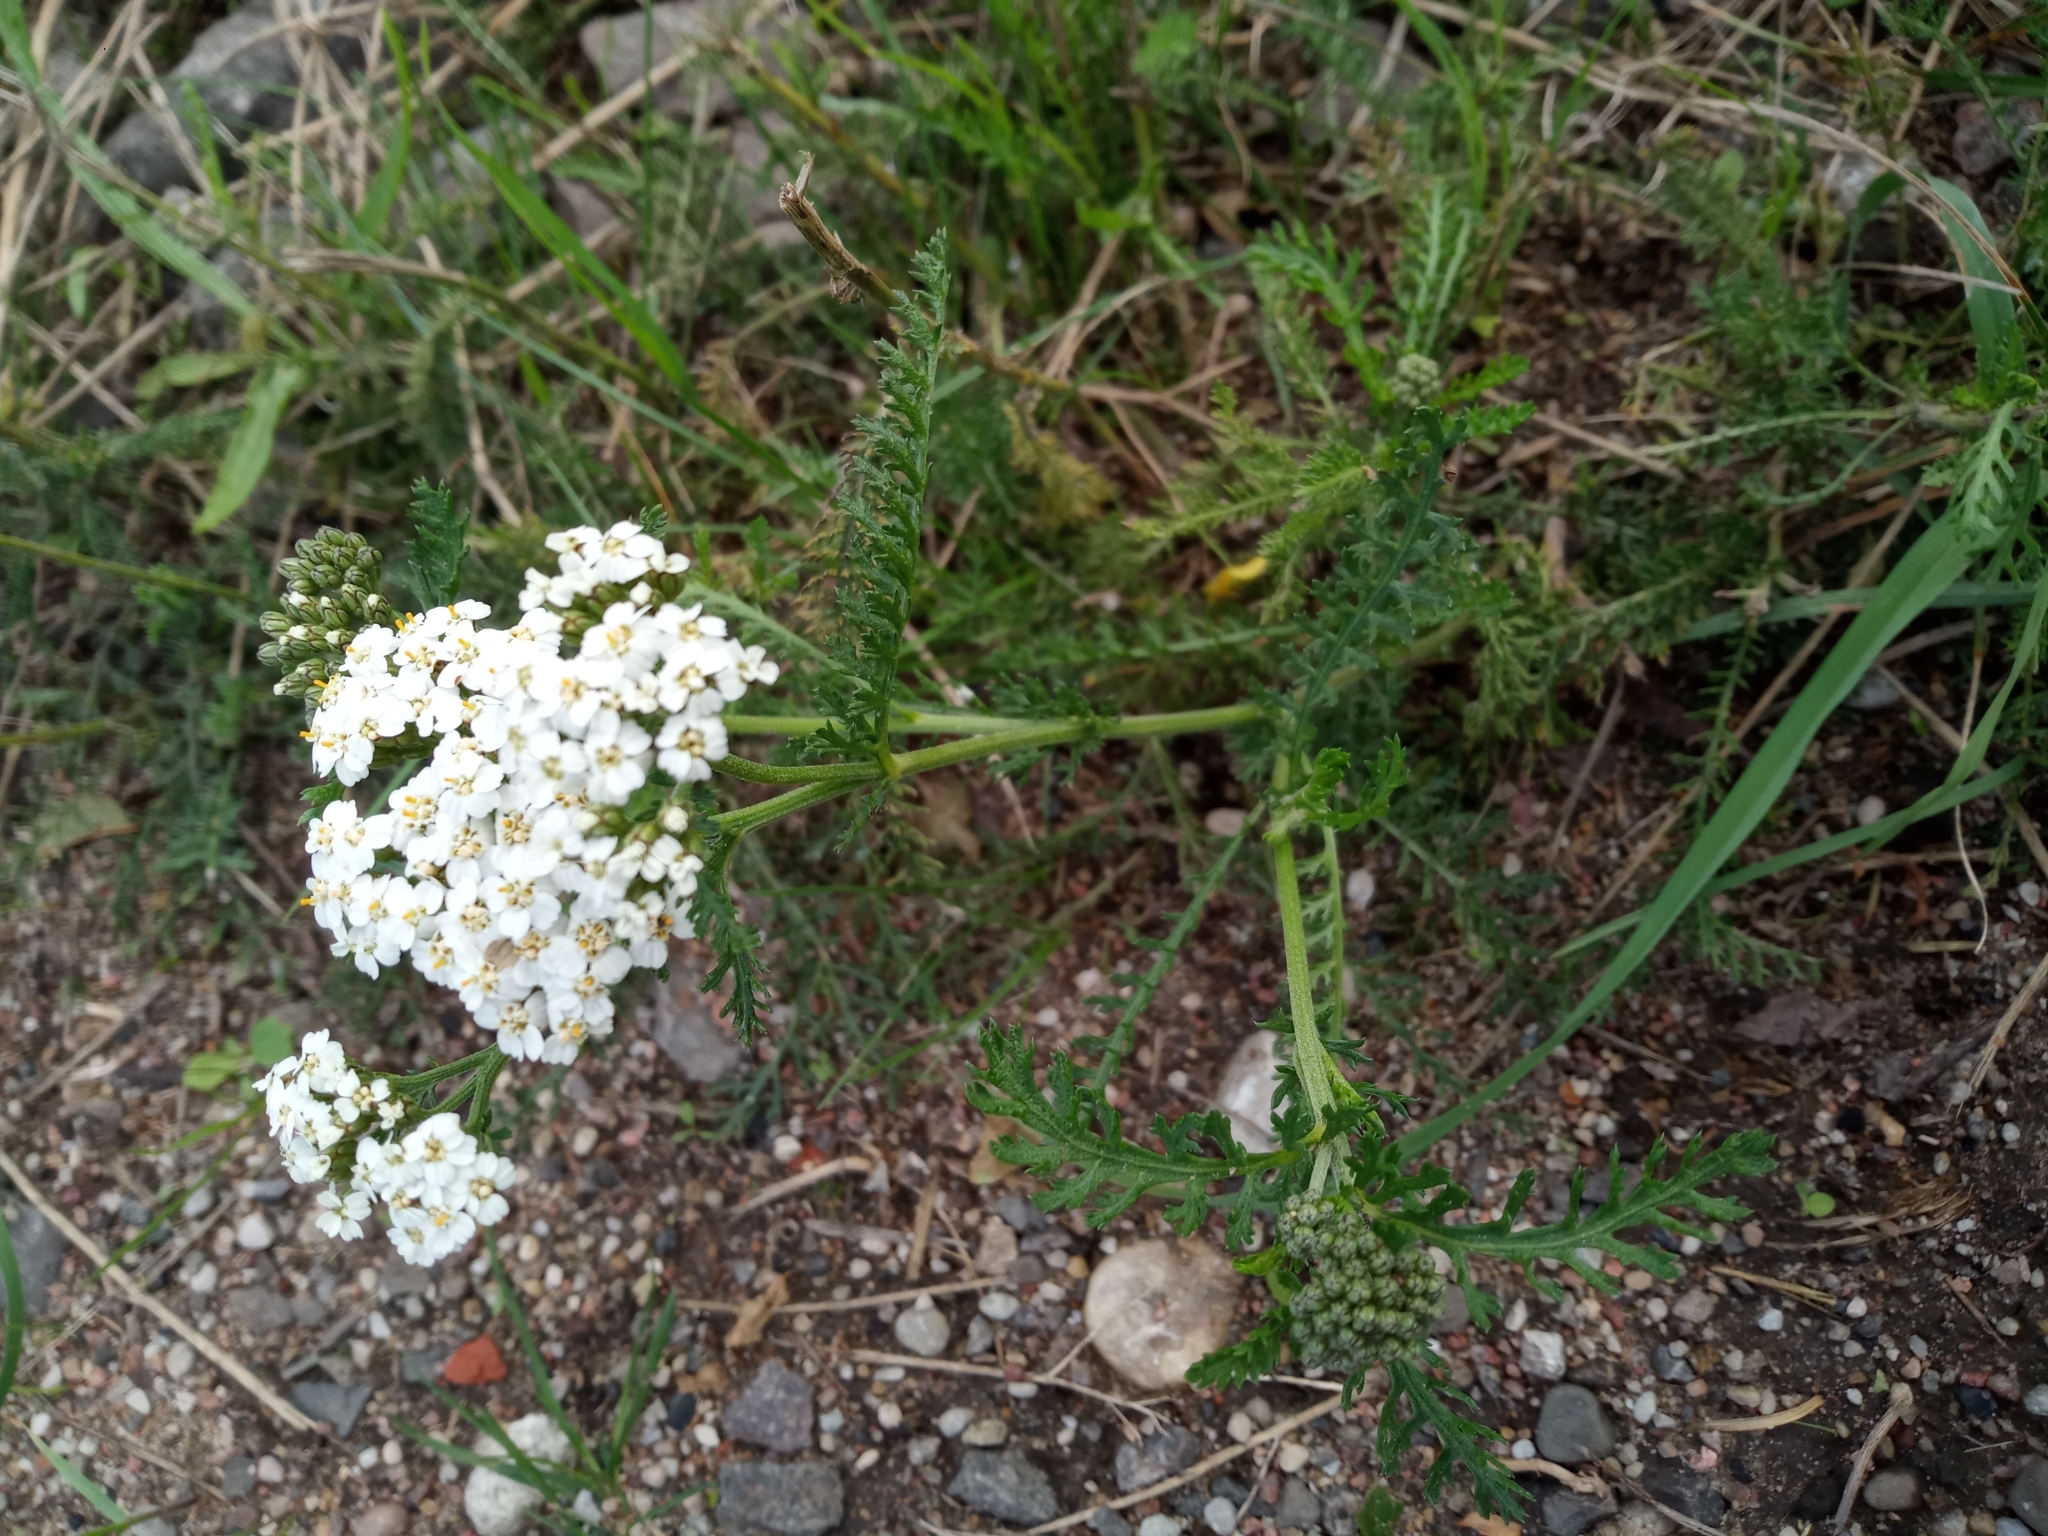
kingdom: Plantae
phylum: Tracheophyta
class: Magnoliopsida
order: Asterales
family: Asteraceae
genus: Achillea
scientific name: Achillea millefolium
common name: Yarrow
